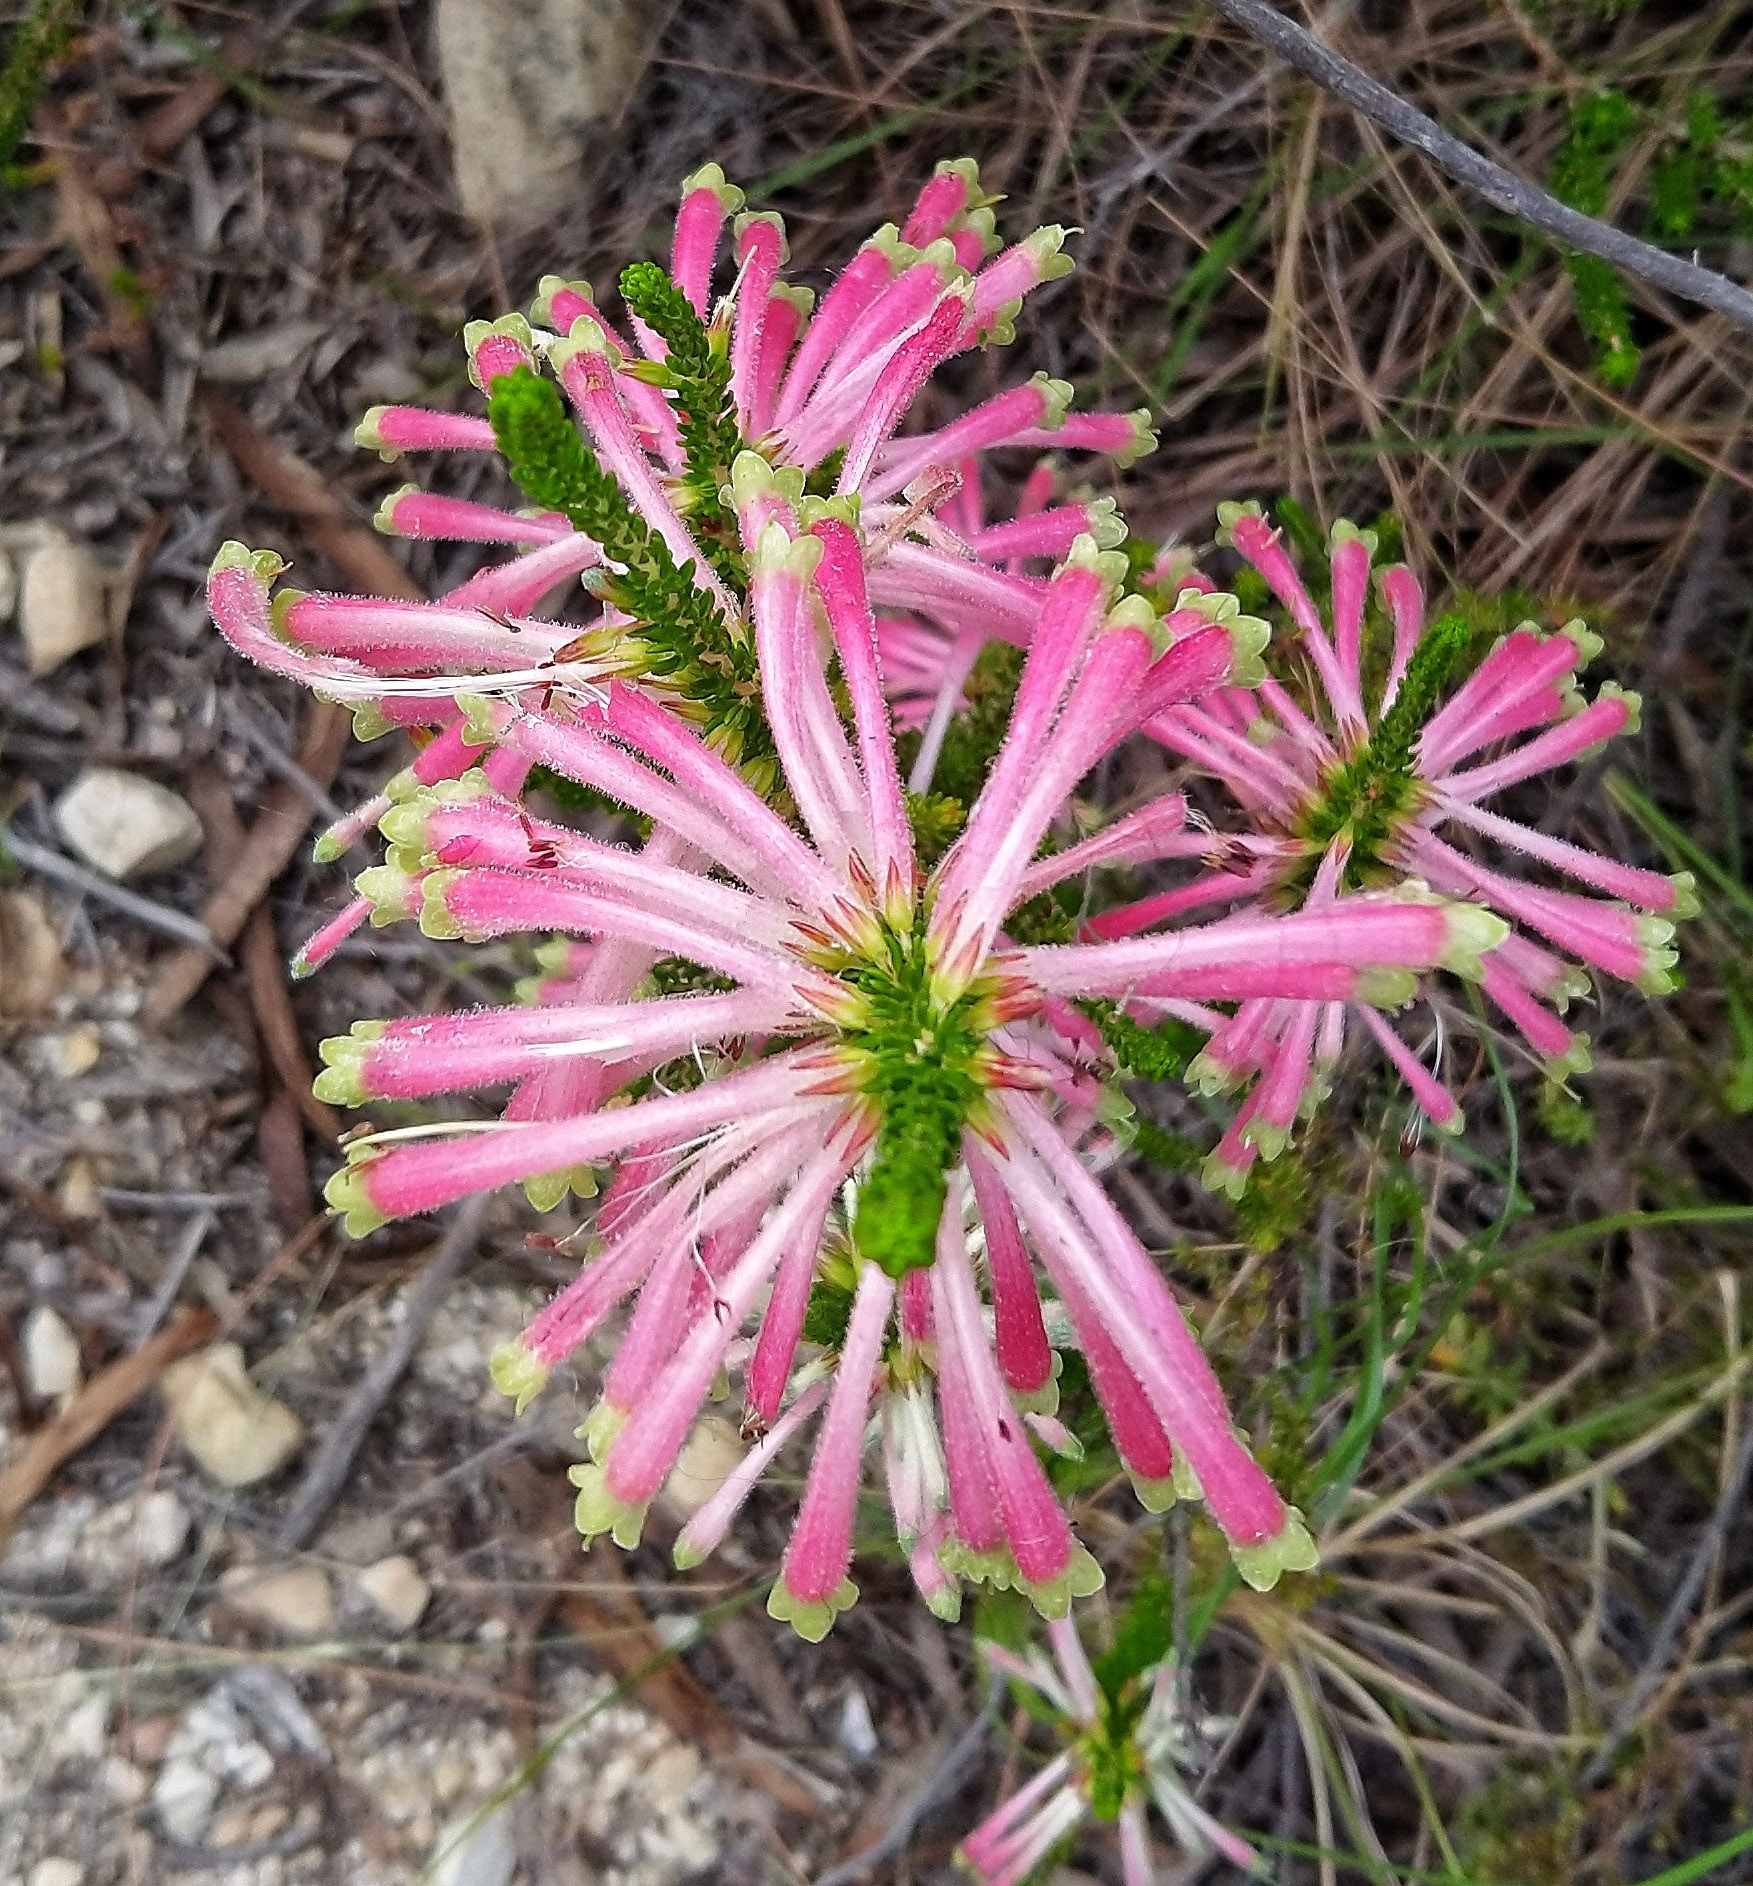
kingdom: Plantae
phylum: Tracheophyta
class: Magnoliopsida
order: Ericales
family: Ericaceae
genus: Erica
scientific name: Erica densifolia
